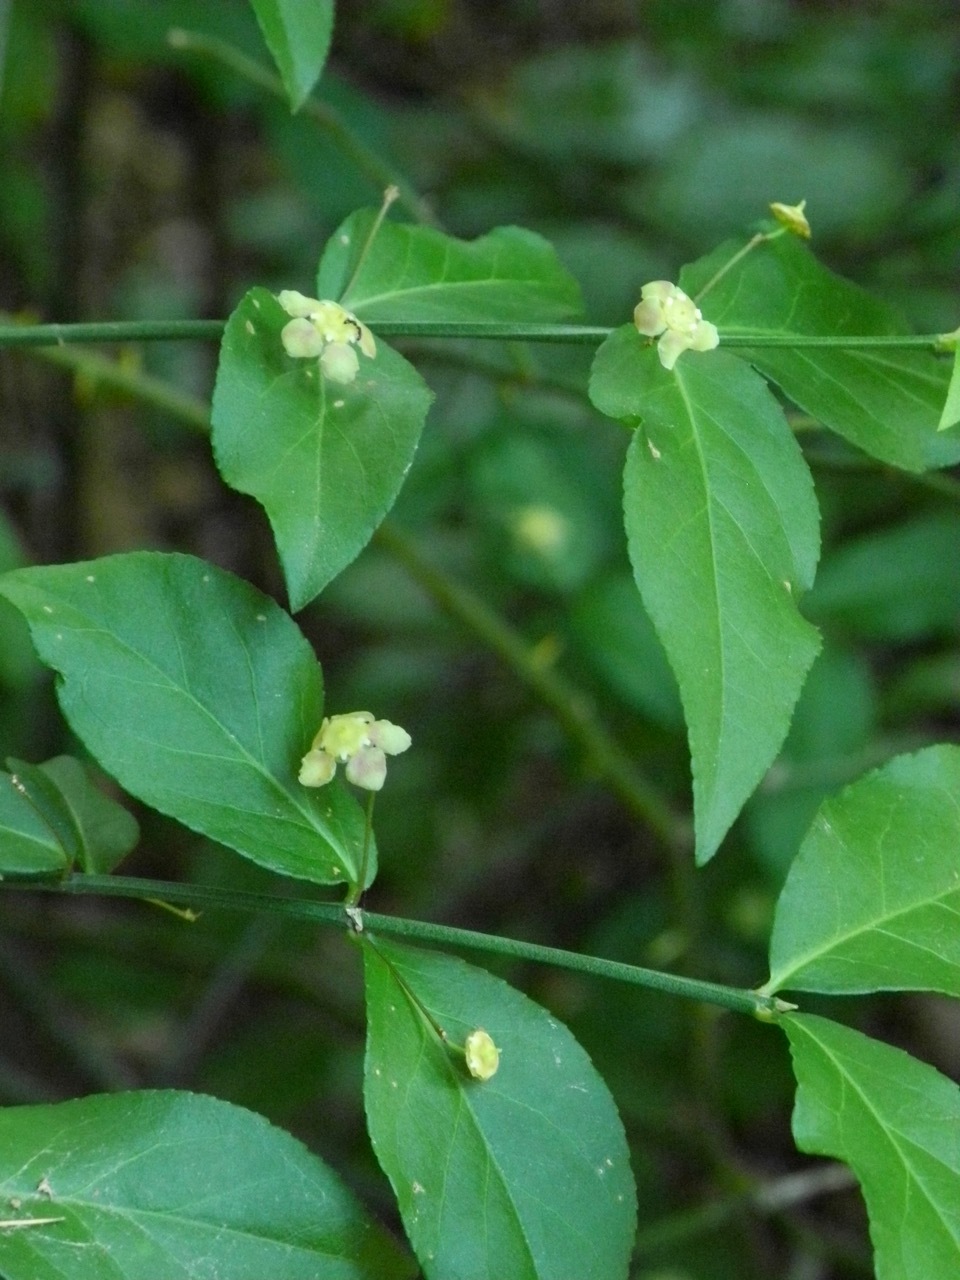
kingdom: Plantae
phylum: Tracheophyta
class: Magnoliopsida
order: Celastrales
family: Celastraceae
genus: Euonymus
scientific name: Euonymus americanus
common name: Bursting-heart
